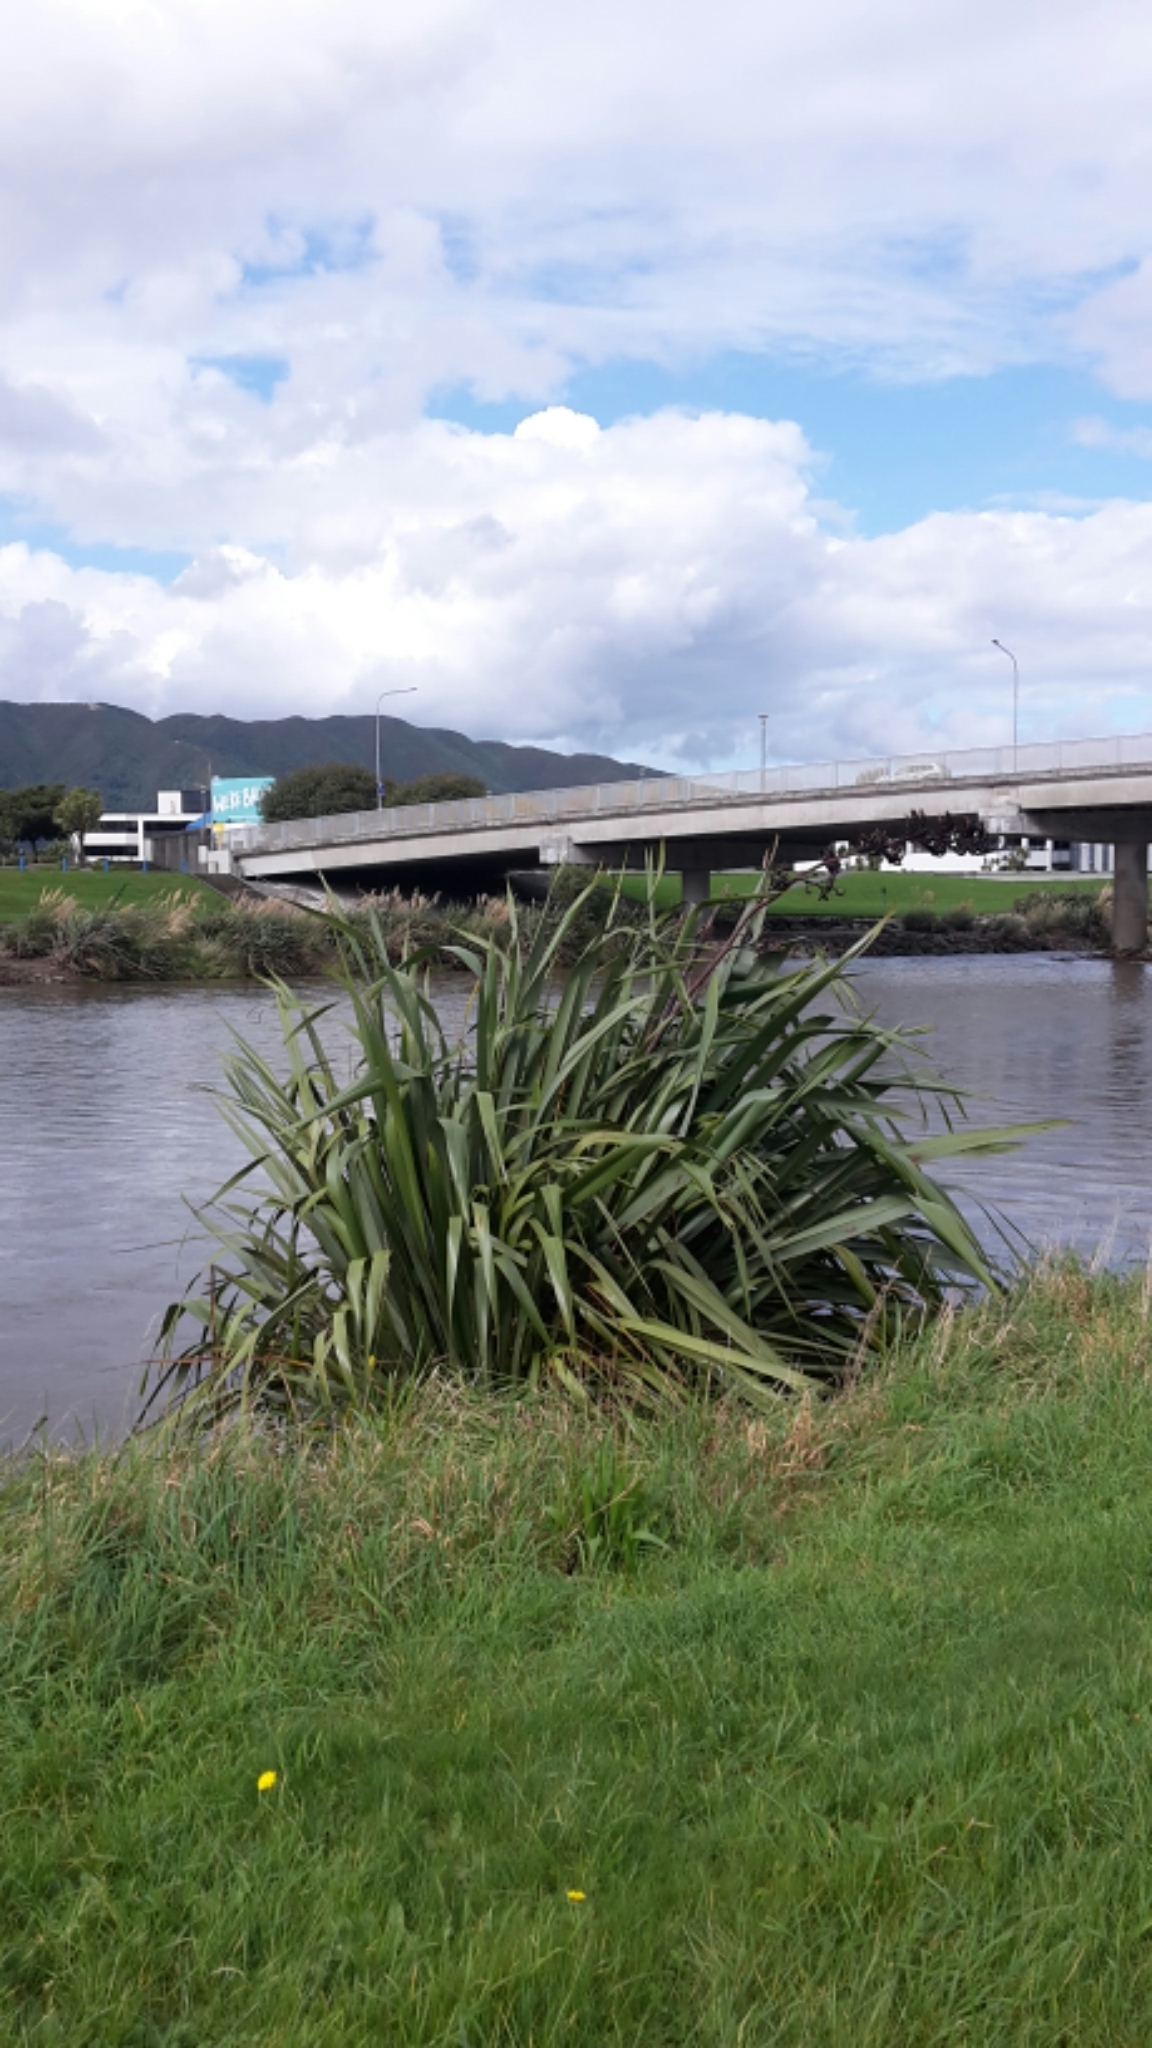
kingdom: Plantae
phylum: Tracheophyta
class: Liliopsida
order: Asparagales
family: Asphodelaceae
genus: Phormium
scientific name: Phormium tenax
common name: New zealand flax
